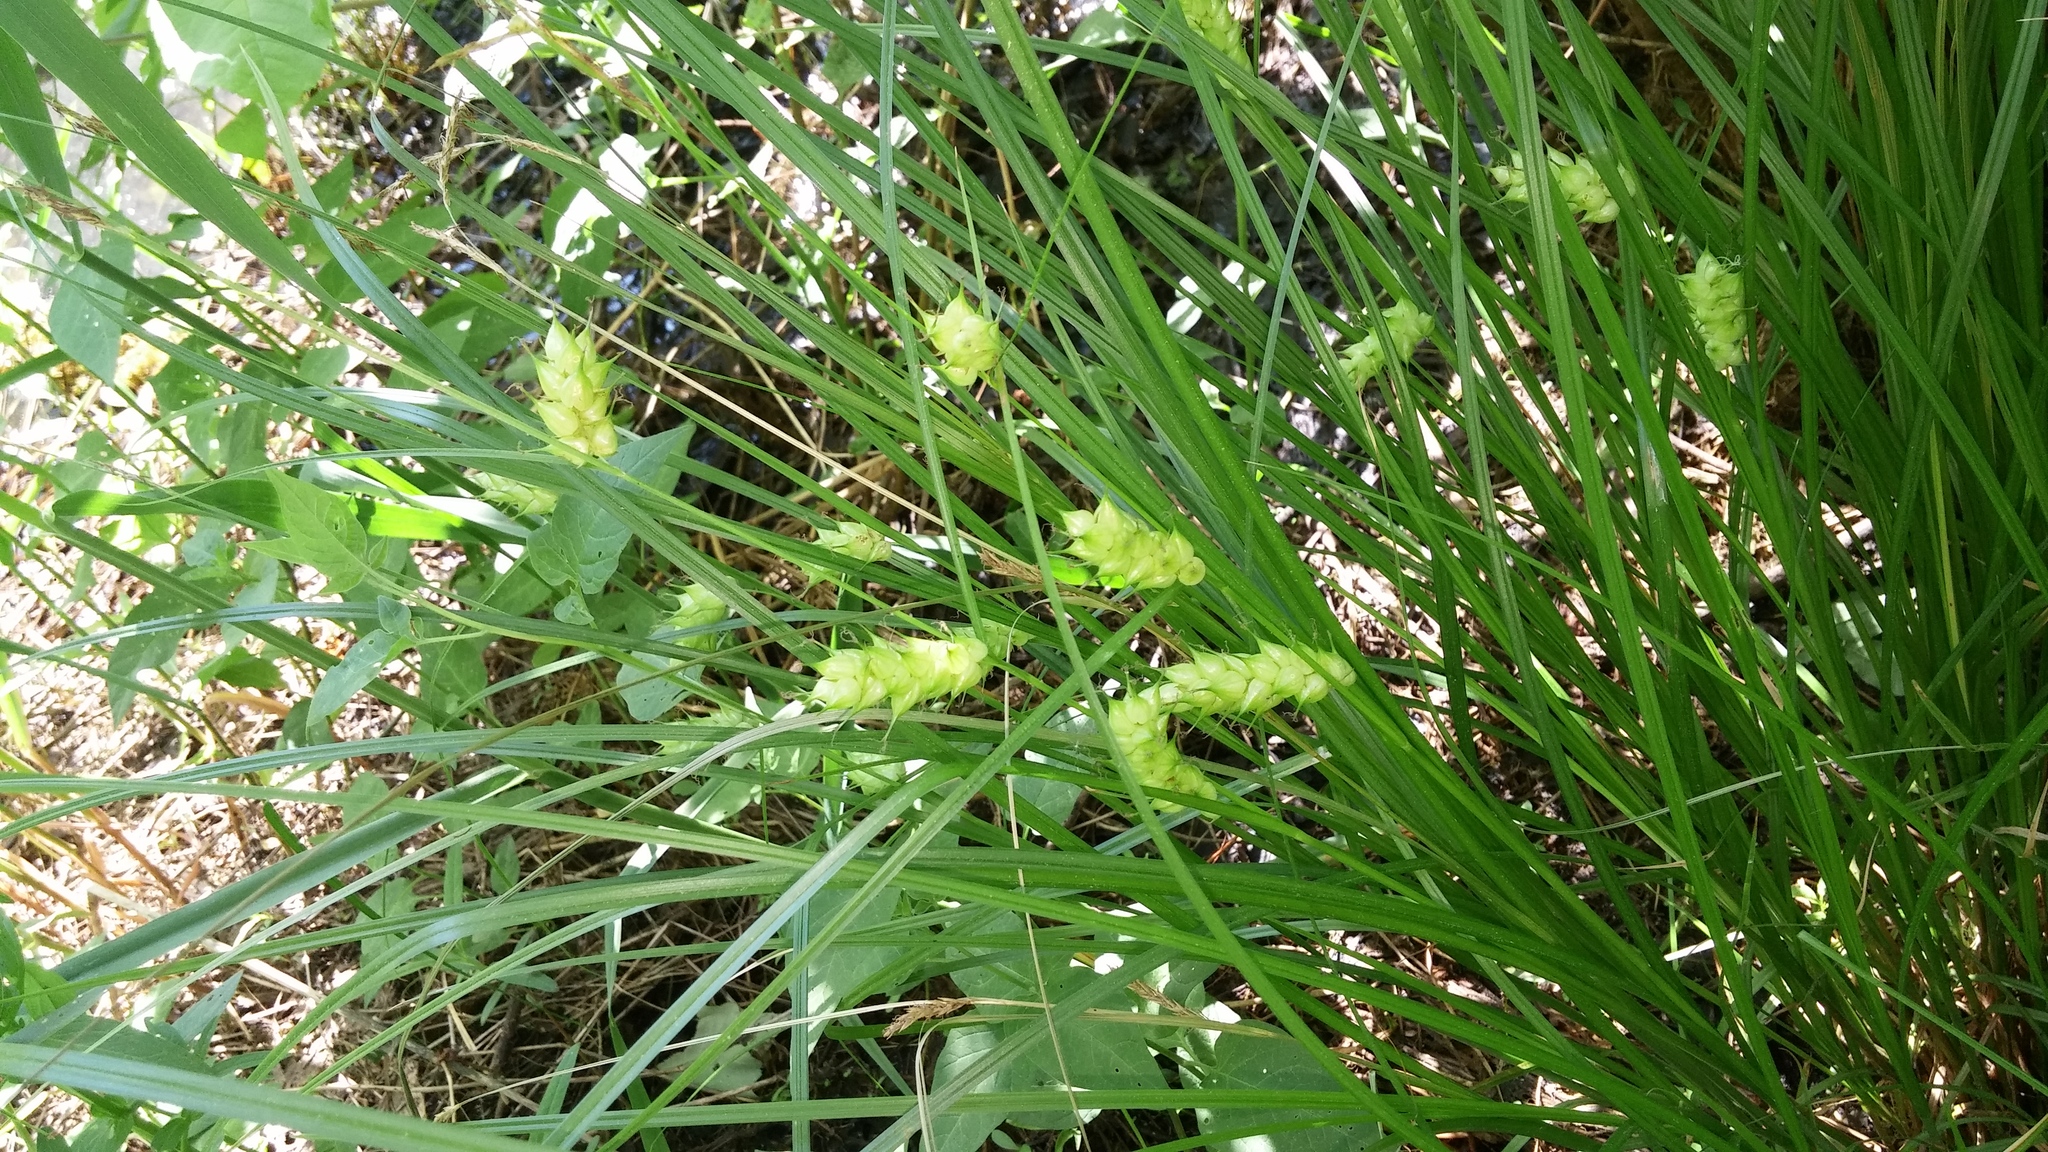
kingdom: Plantae
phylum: Tracheophyta
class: Liliopsida
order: Poales
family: Cyperaceae
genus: Carex
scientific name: Carex tuckermanii
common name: Tuckerman's sedge
